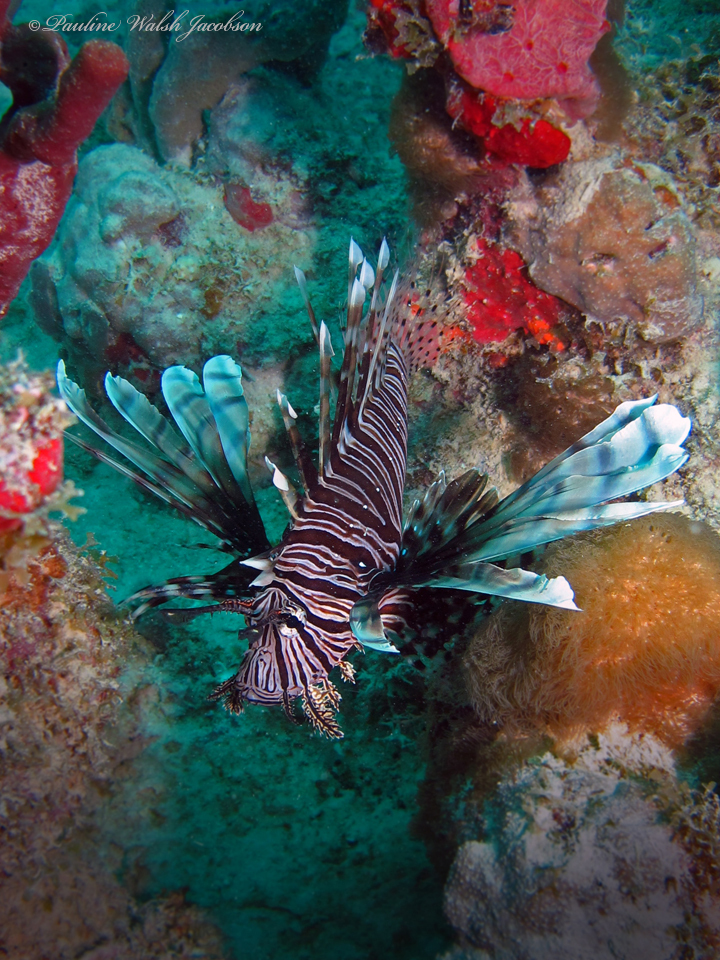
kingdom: Animalia
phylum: Chordata
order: Scorpaeniformes
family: Scorpaenidae
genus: Pterois
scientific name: Pterois volitans
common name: Lionfish
